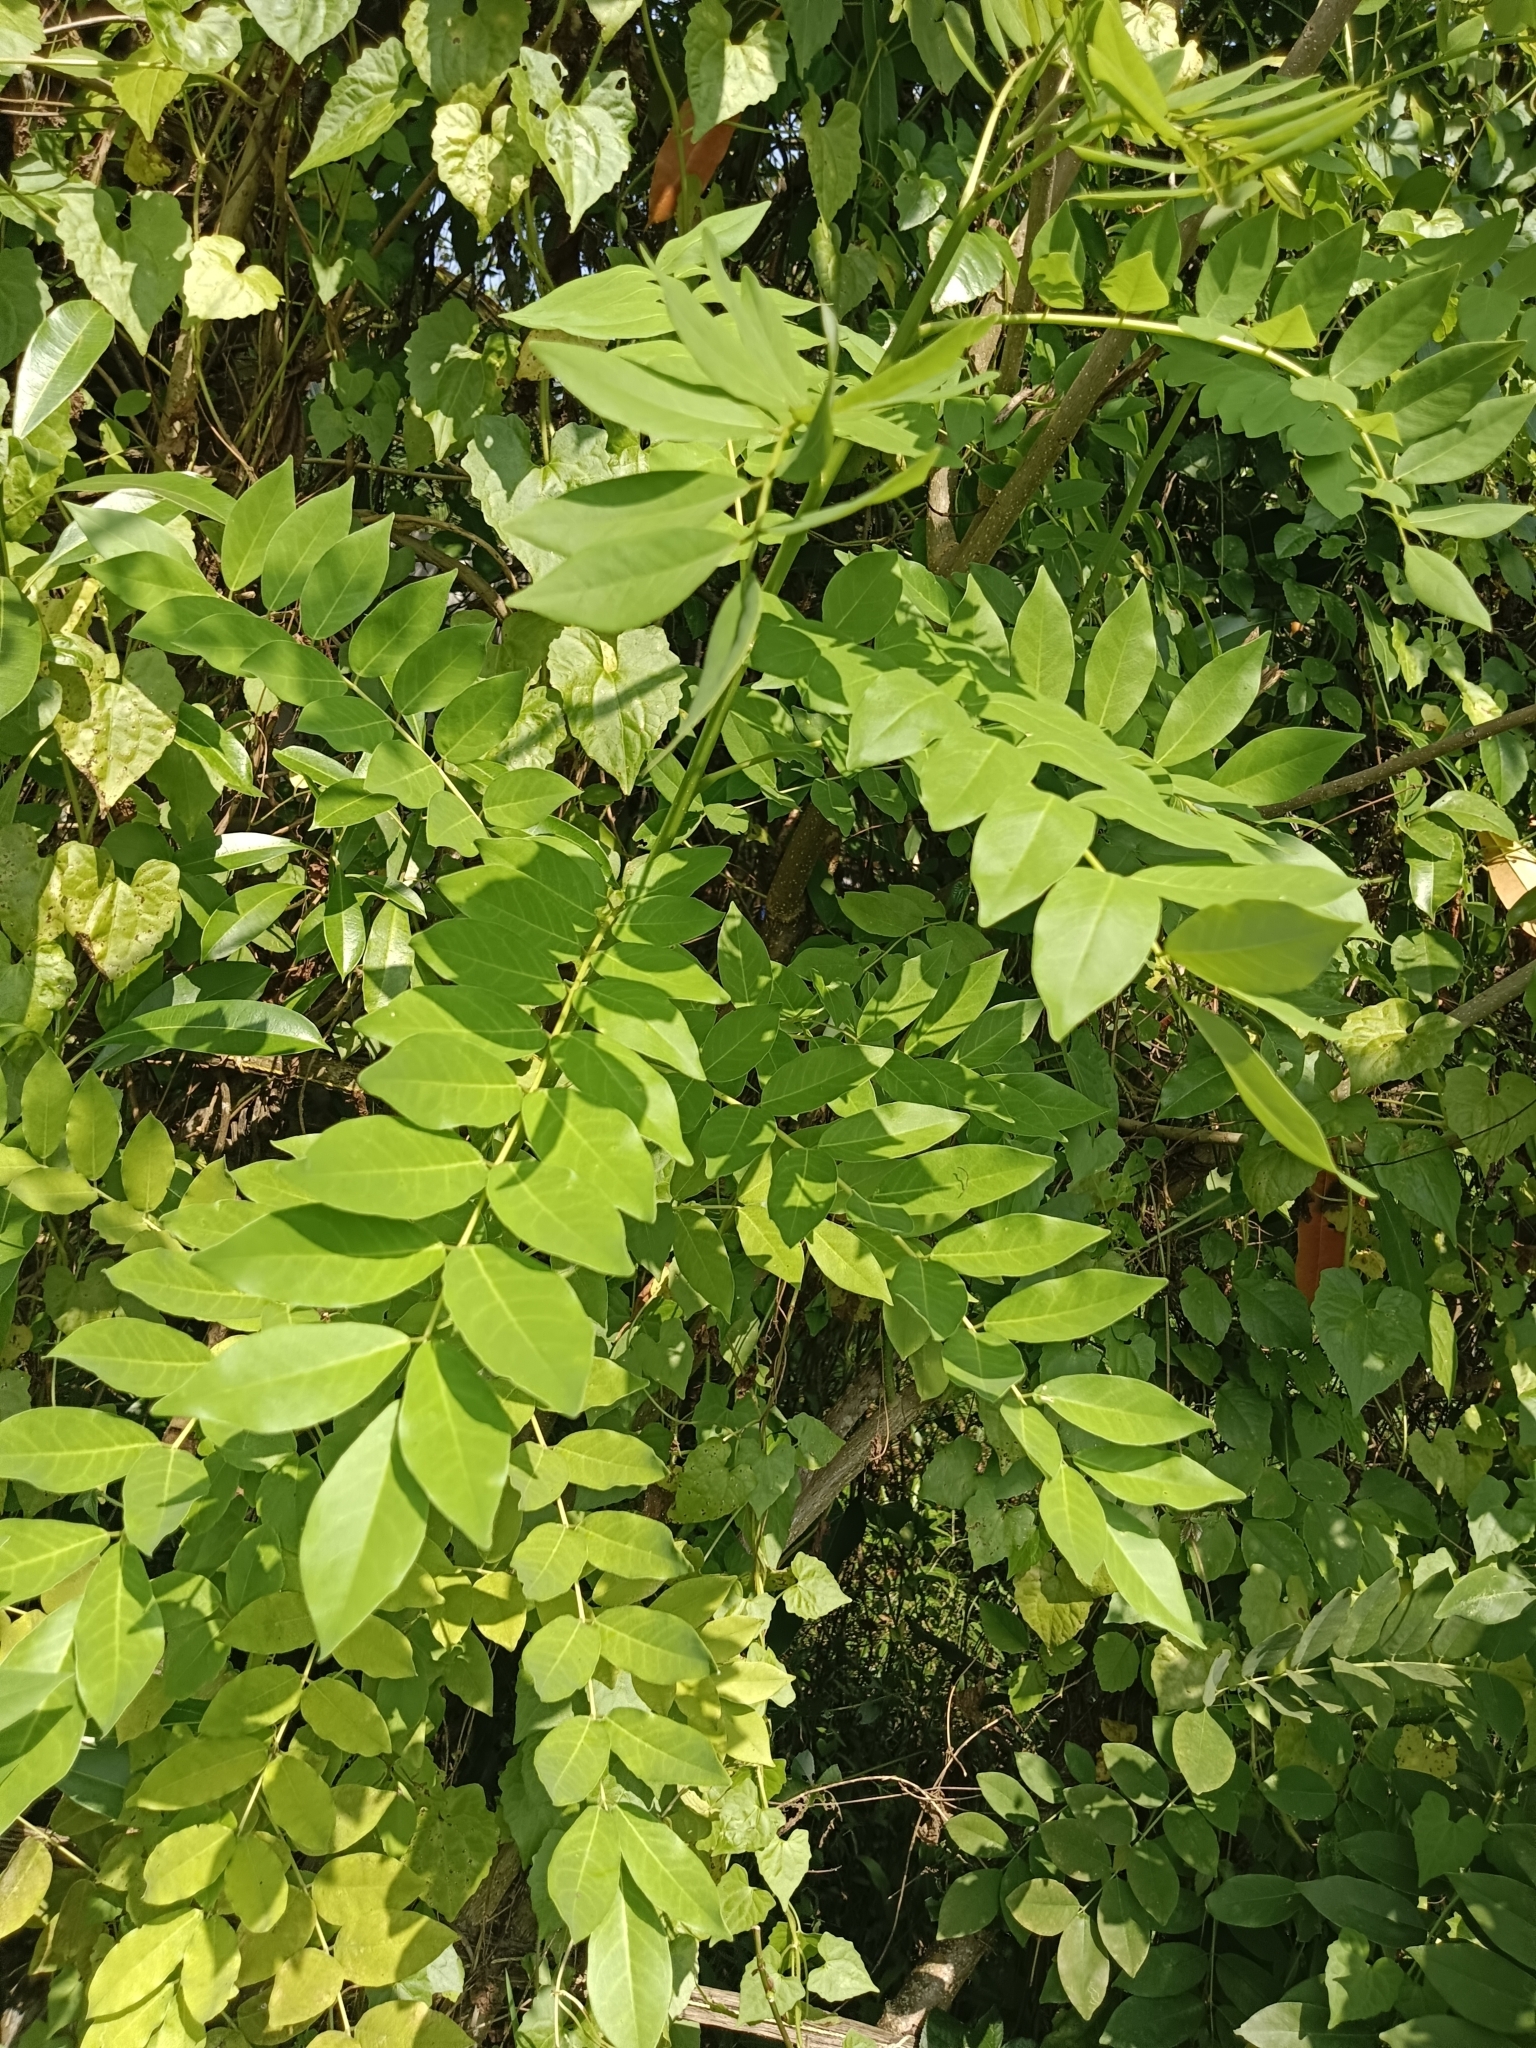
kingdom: Plantae
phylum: Tracheophyta
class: Magnoliopsida
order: Fabales
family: Fabaceae
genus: Gliricidia
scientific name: Gliricidia sepium
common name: Quickstick
